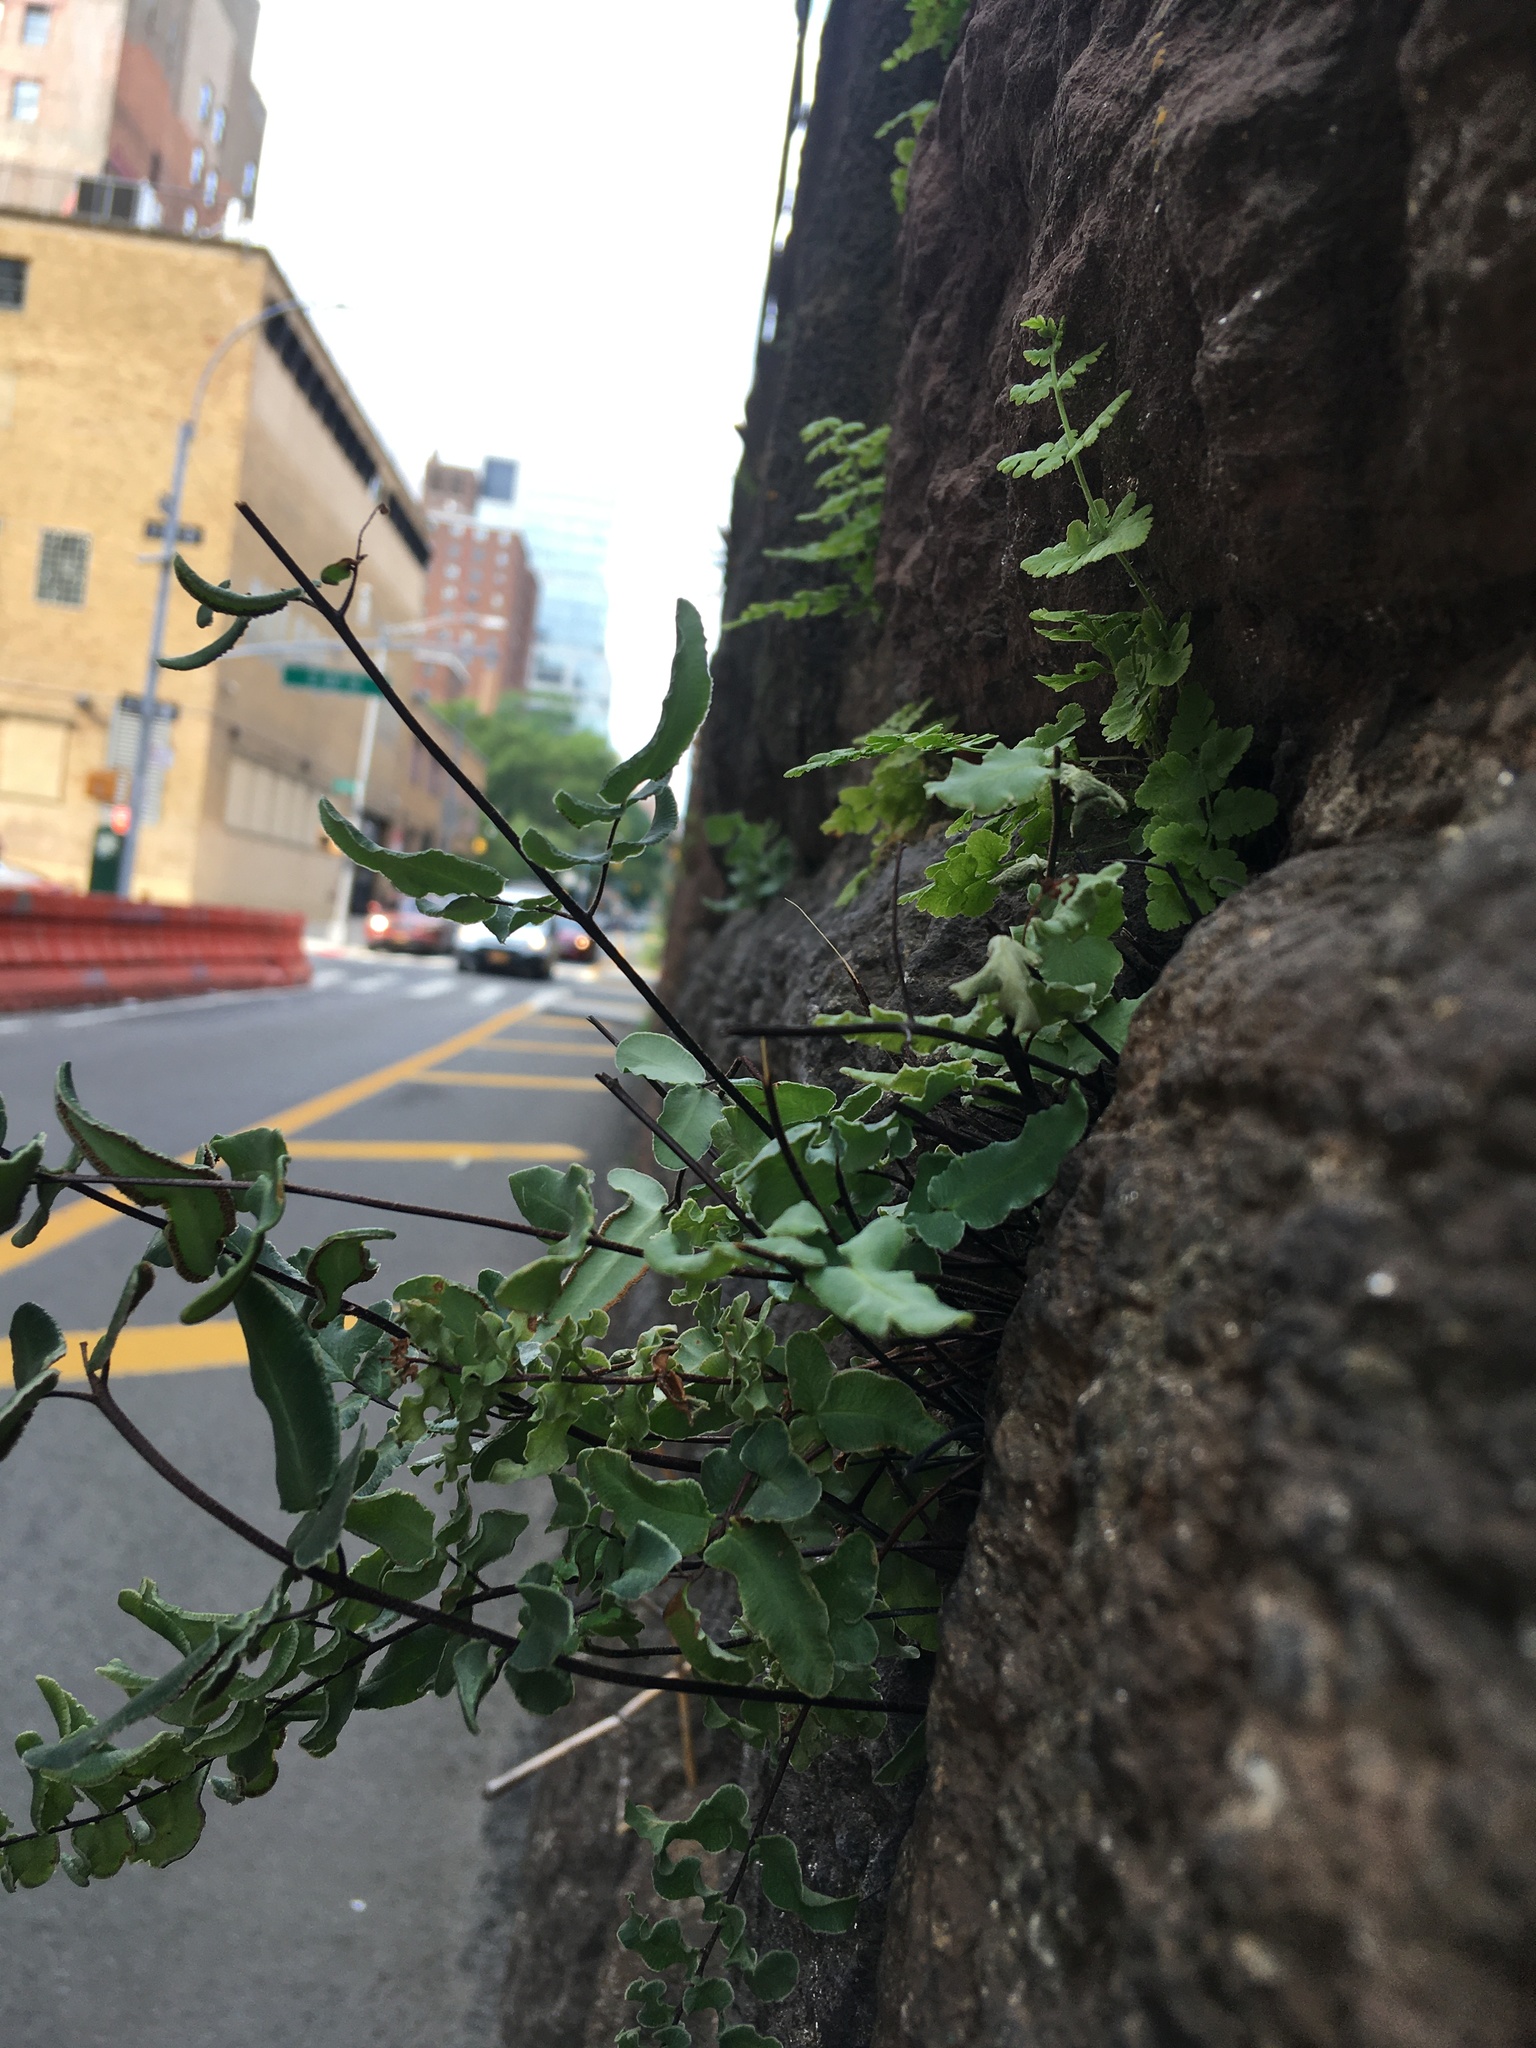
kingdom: Plantae
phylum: Tracheophyta
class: Polypodiopsida
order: Polypodiales
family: Pteridaceae
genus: Pellaea
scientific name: Pellaea atropurpurea
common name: Hairy cliffbrake
